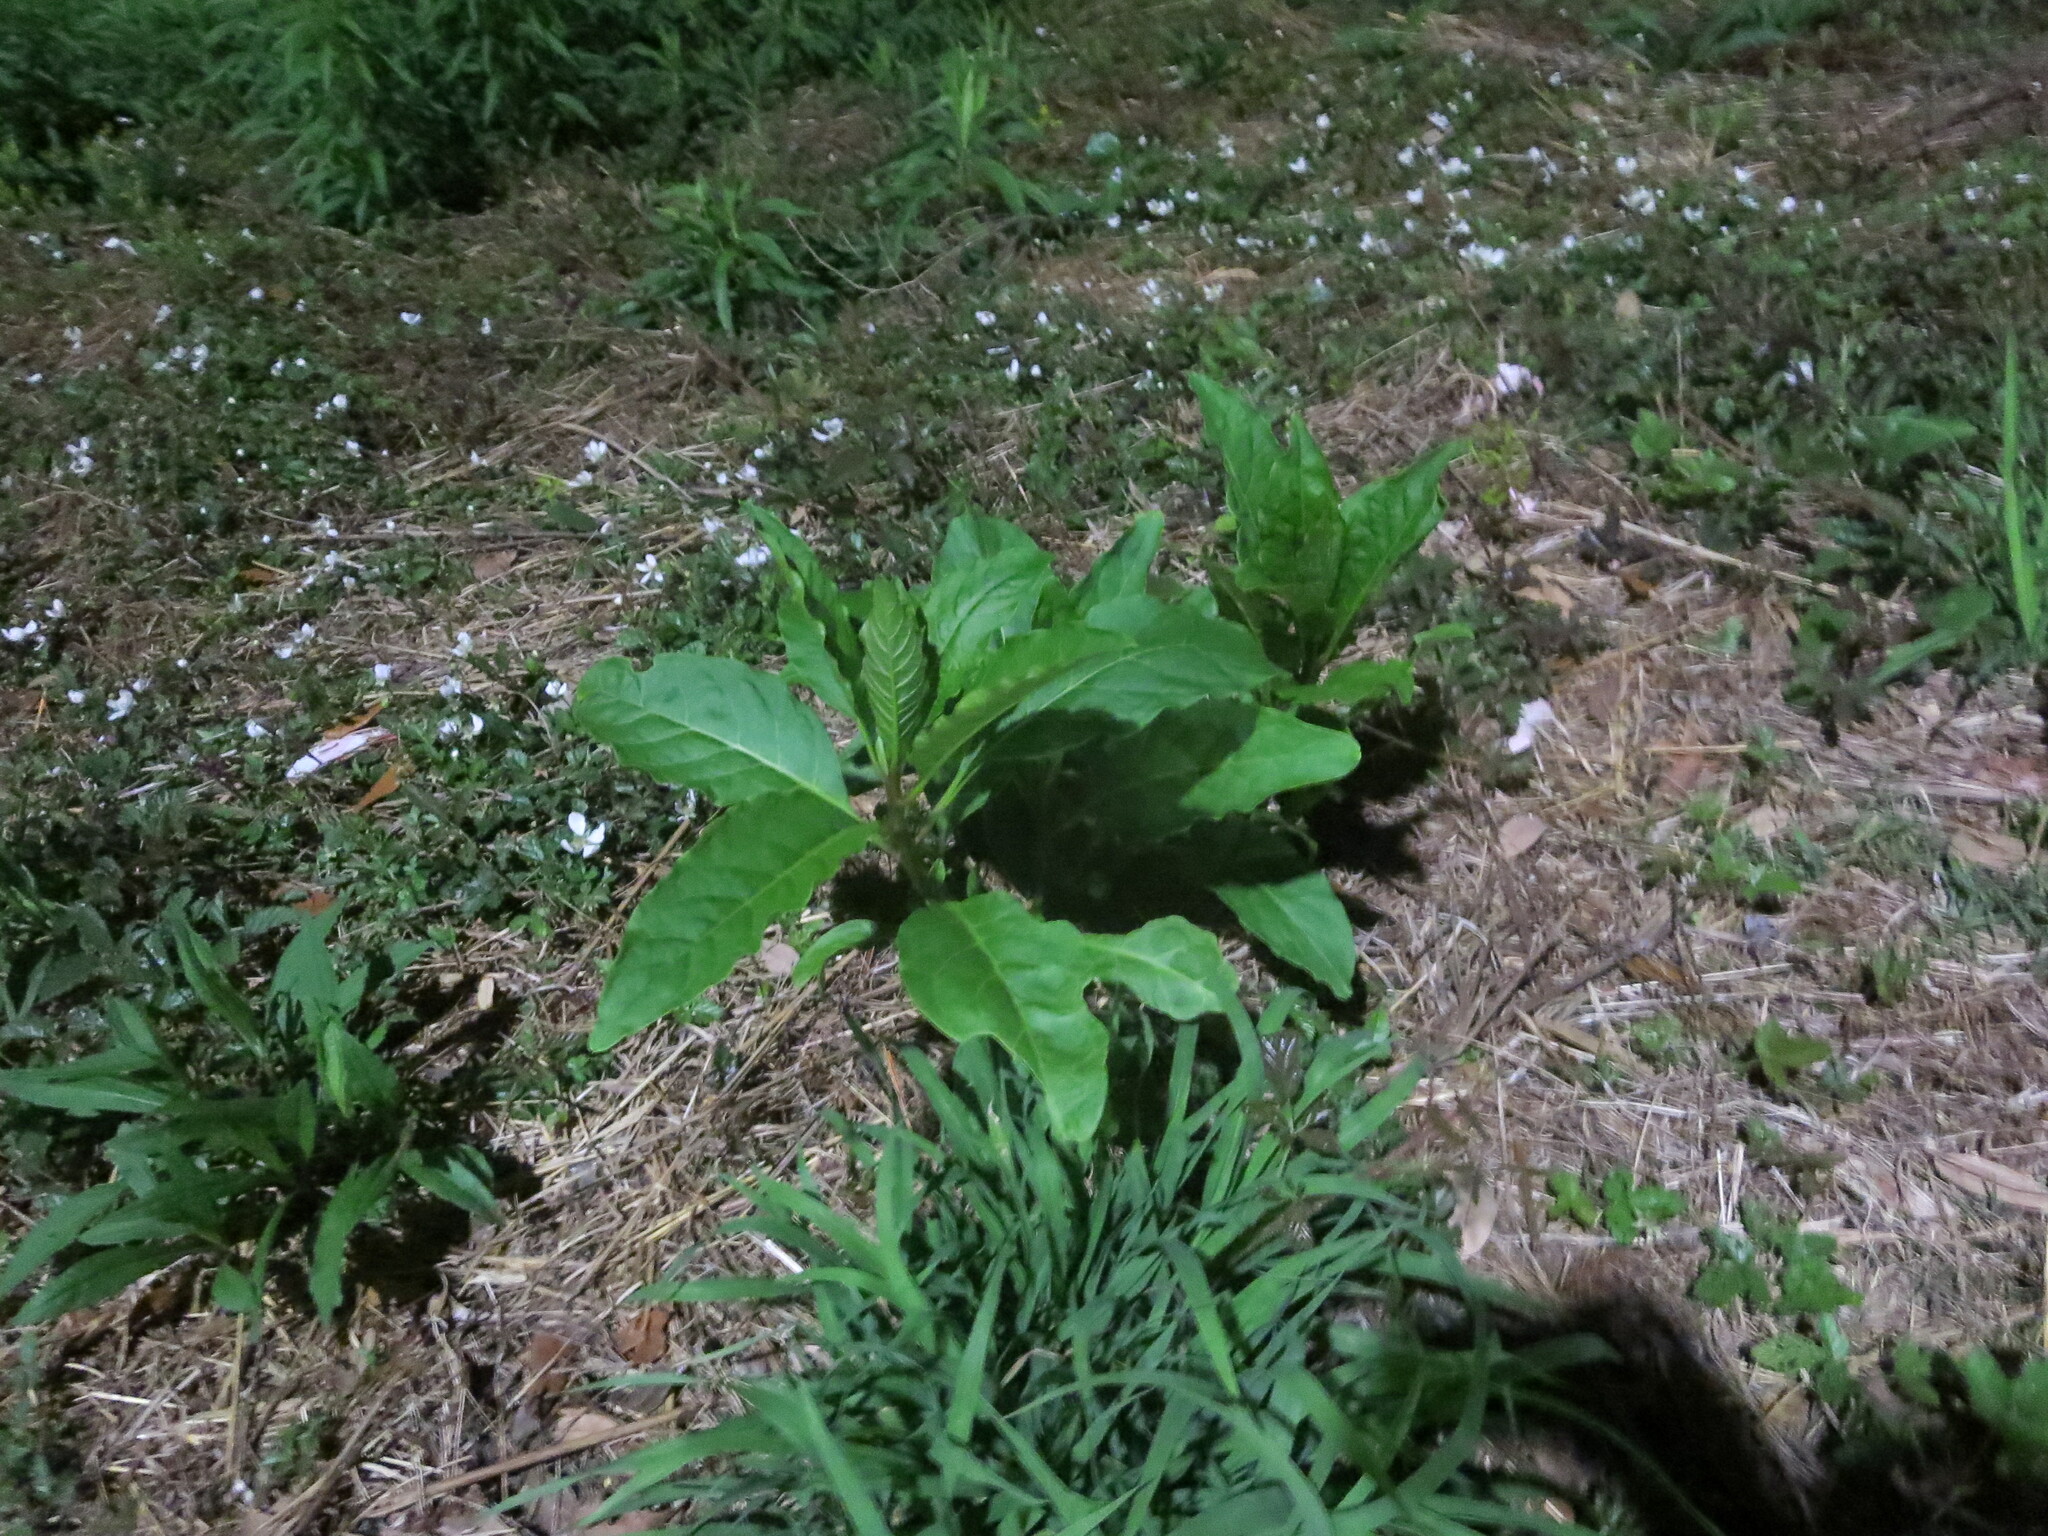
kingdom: Plantae
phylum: Tracheophyta
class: Magnoliopsida
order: Caryophyllales
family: Phytolaccaceae
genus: Phytolacca
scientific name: Phytolacca americana
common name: American pokeweed
